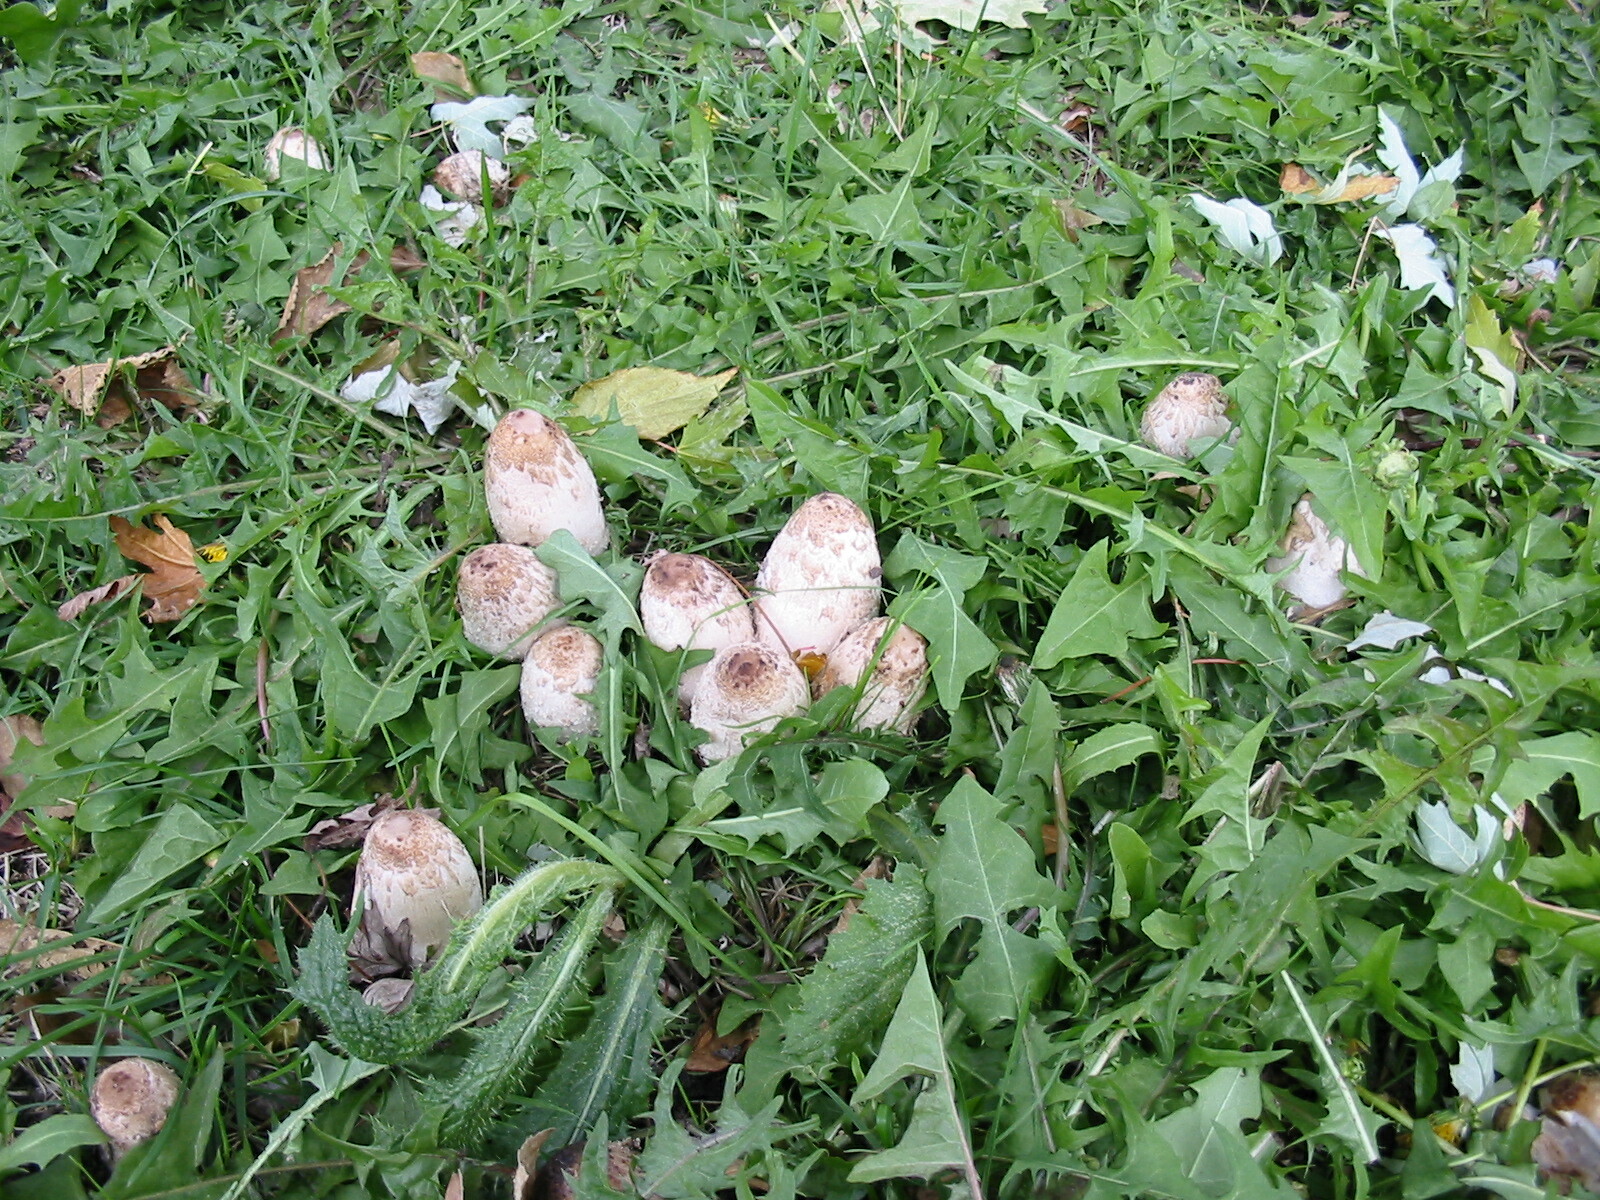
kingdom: Fungi
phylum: Basidiomycota
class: Agaricomycetes
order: Agaricales
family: Agaricaceae
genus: Coprinus
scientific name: Coprinus comatus
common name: Lawyer's wig
